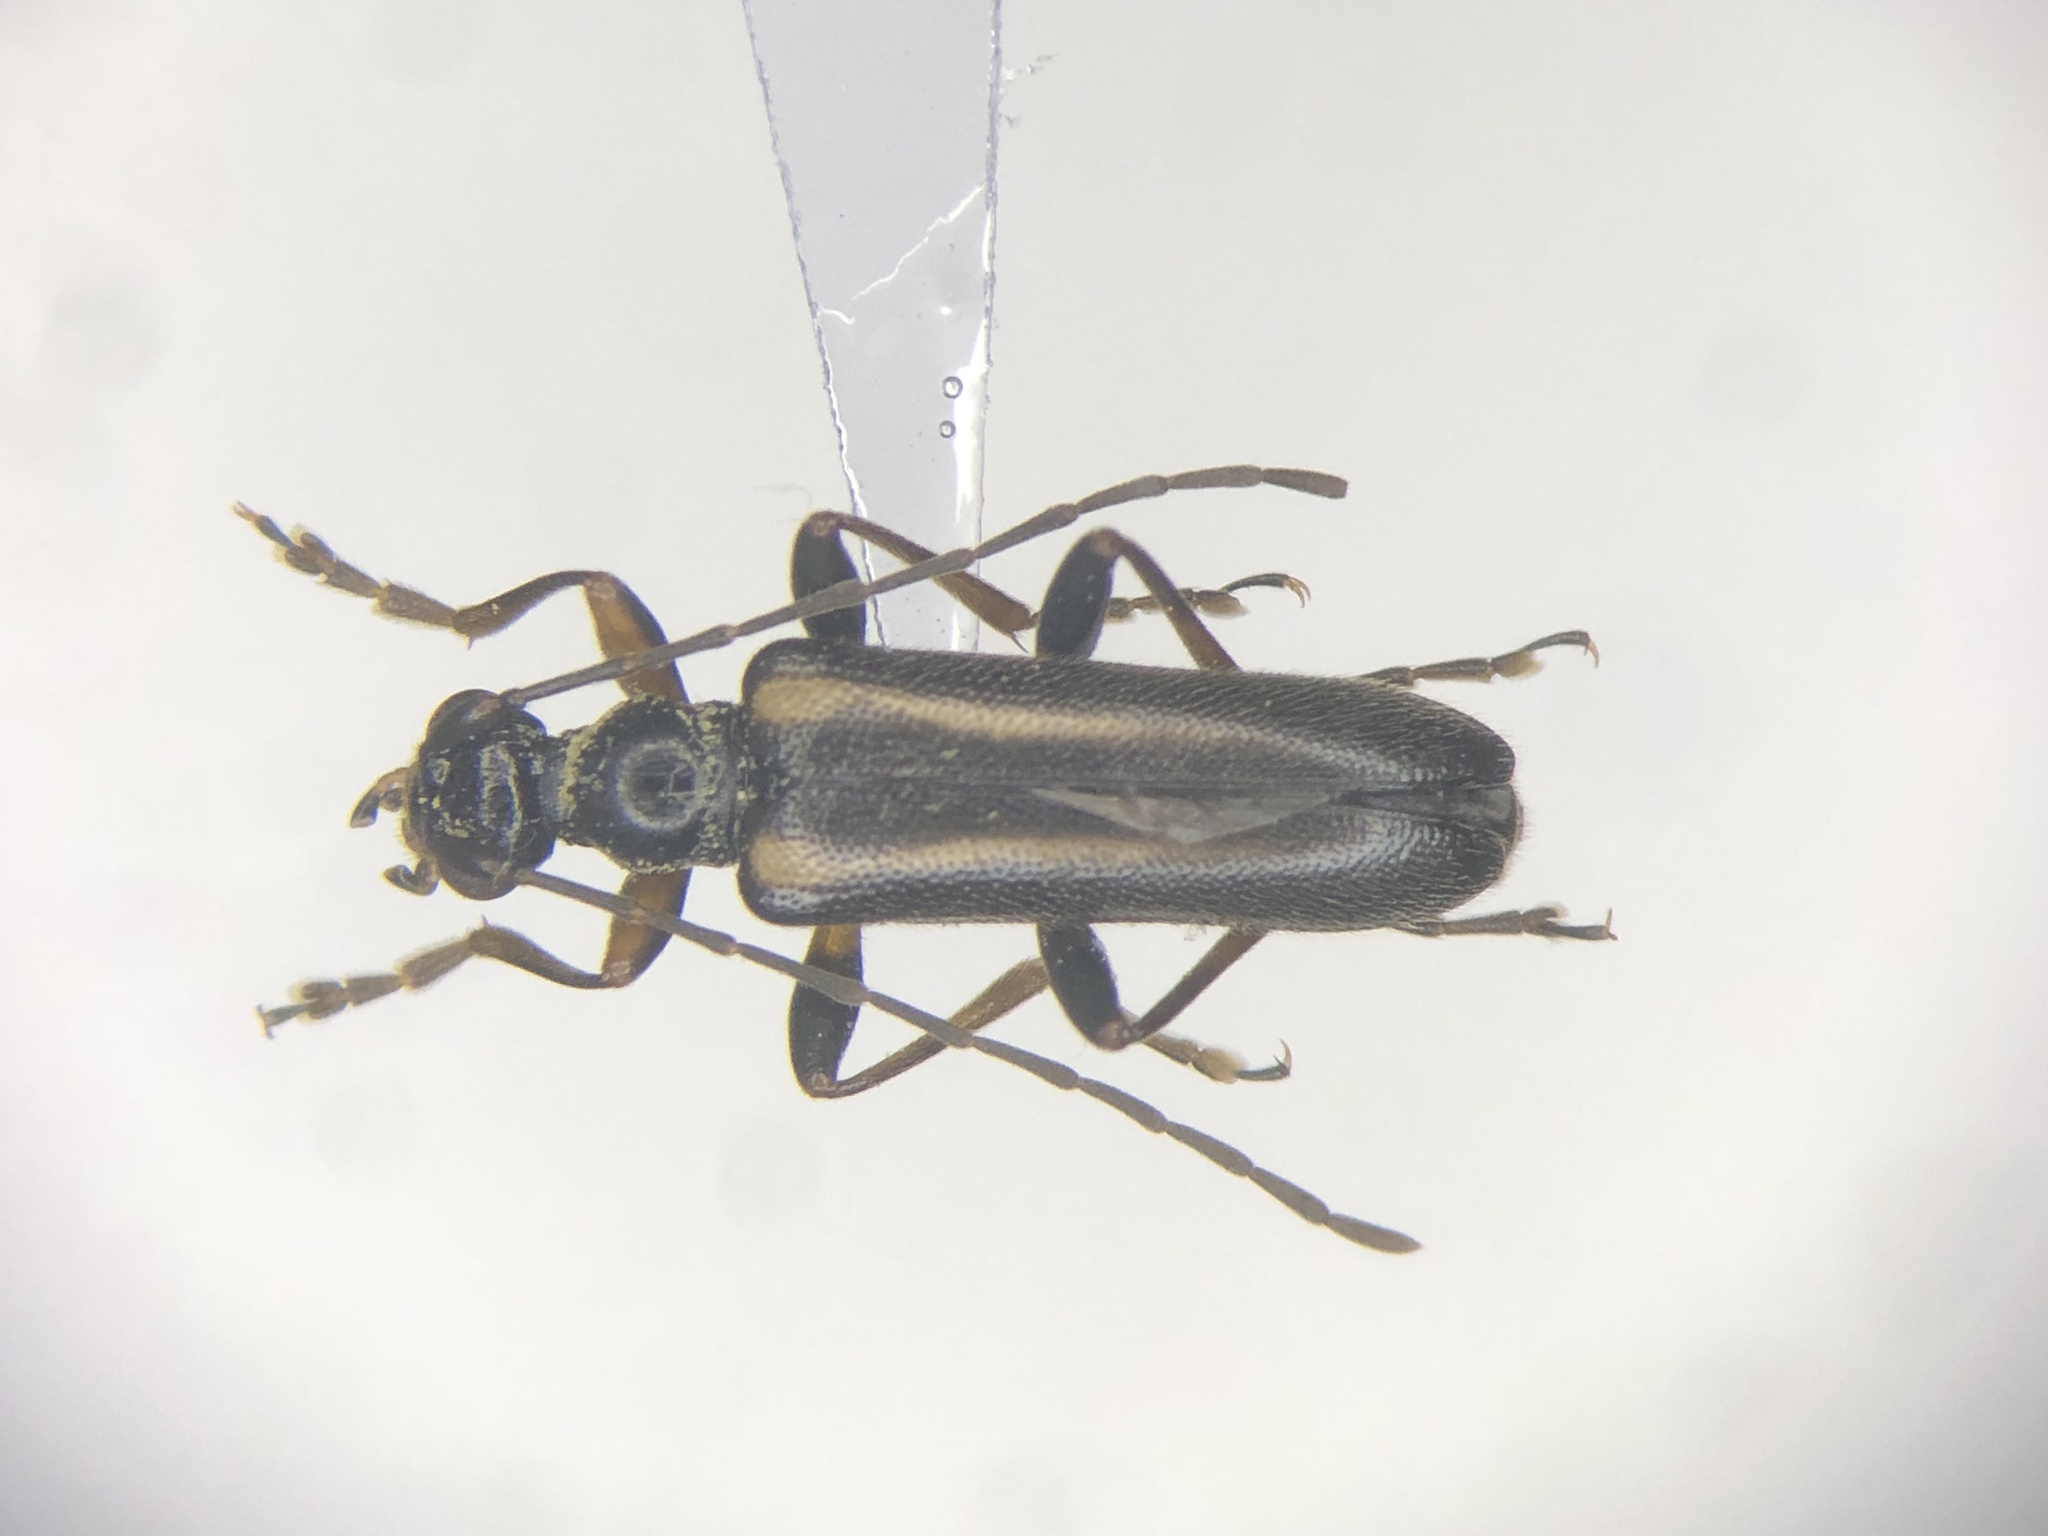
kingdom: Animalia
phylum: Arthropoda
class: Insecta
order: Coleoptera
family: Cerambycidae
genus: Pidonia
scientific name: Pidonia ruficollis
